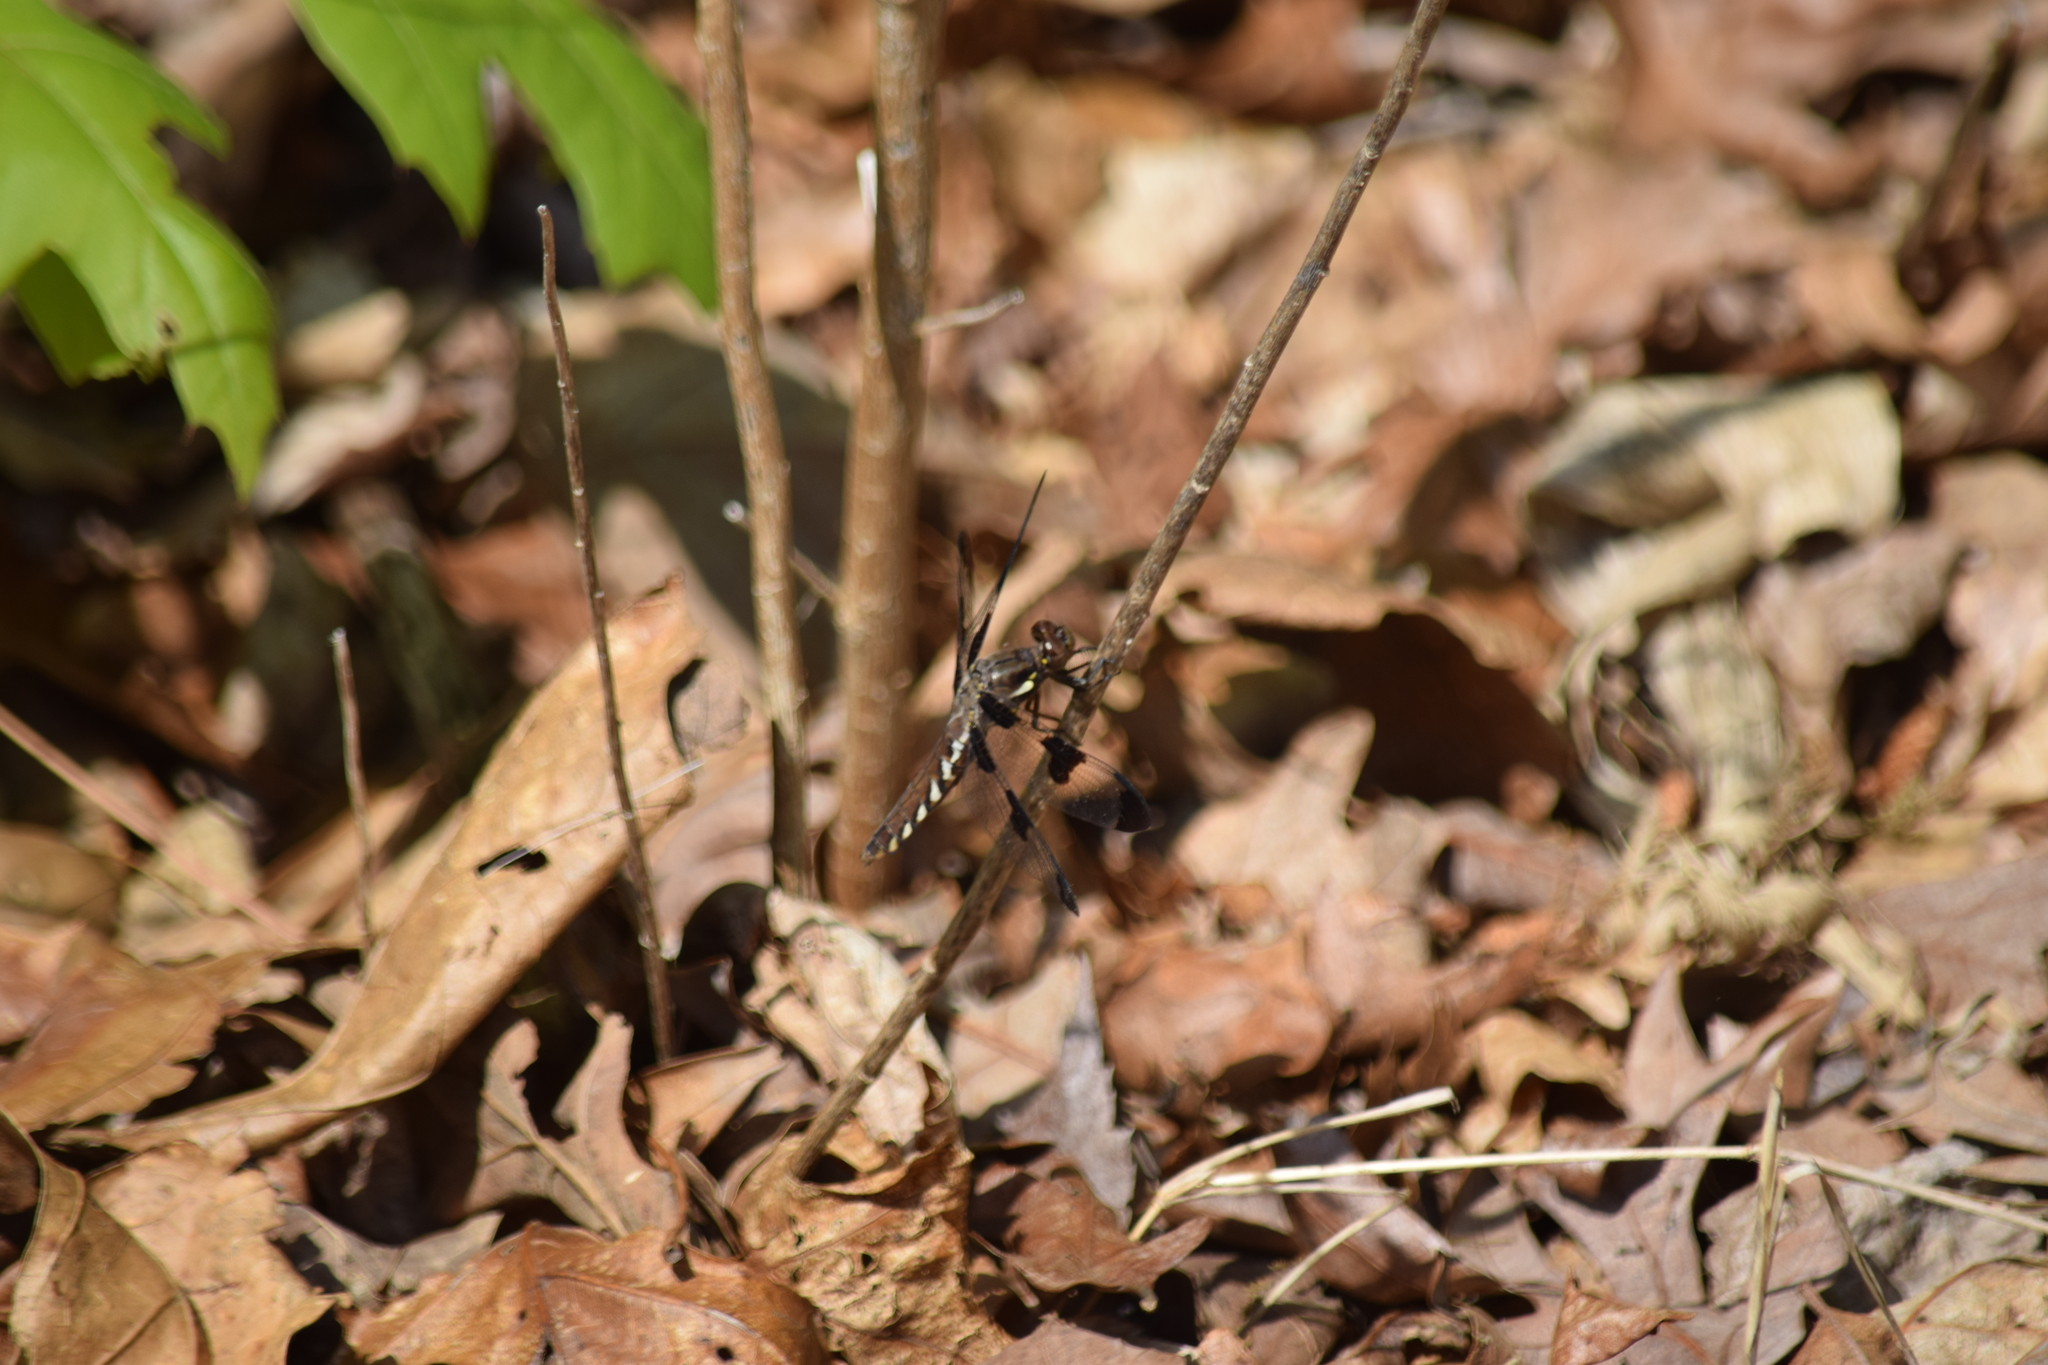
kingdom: Animalia
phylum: Arthropoda
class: Insecta
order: Odonata
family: Libellulidae
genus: Plathemis
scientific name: Plathemis lydia
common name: Common whitetail
